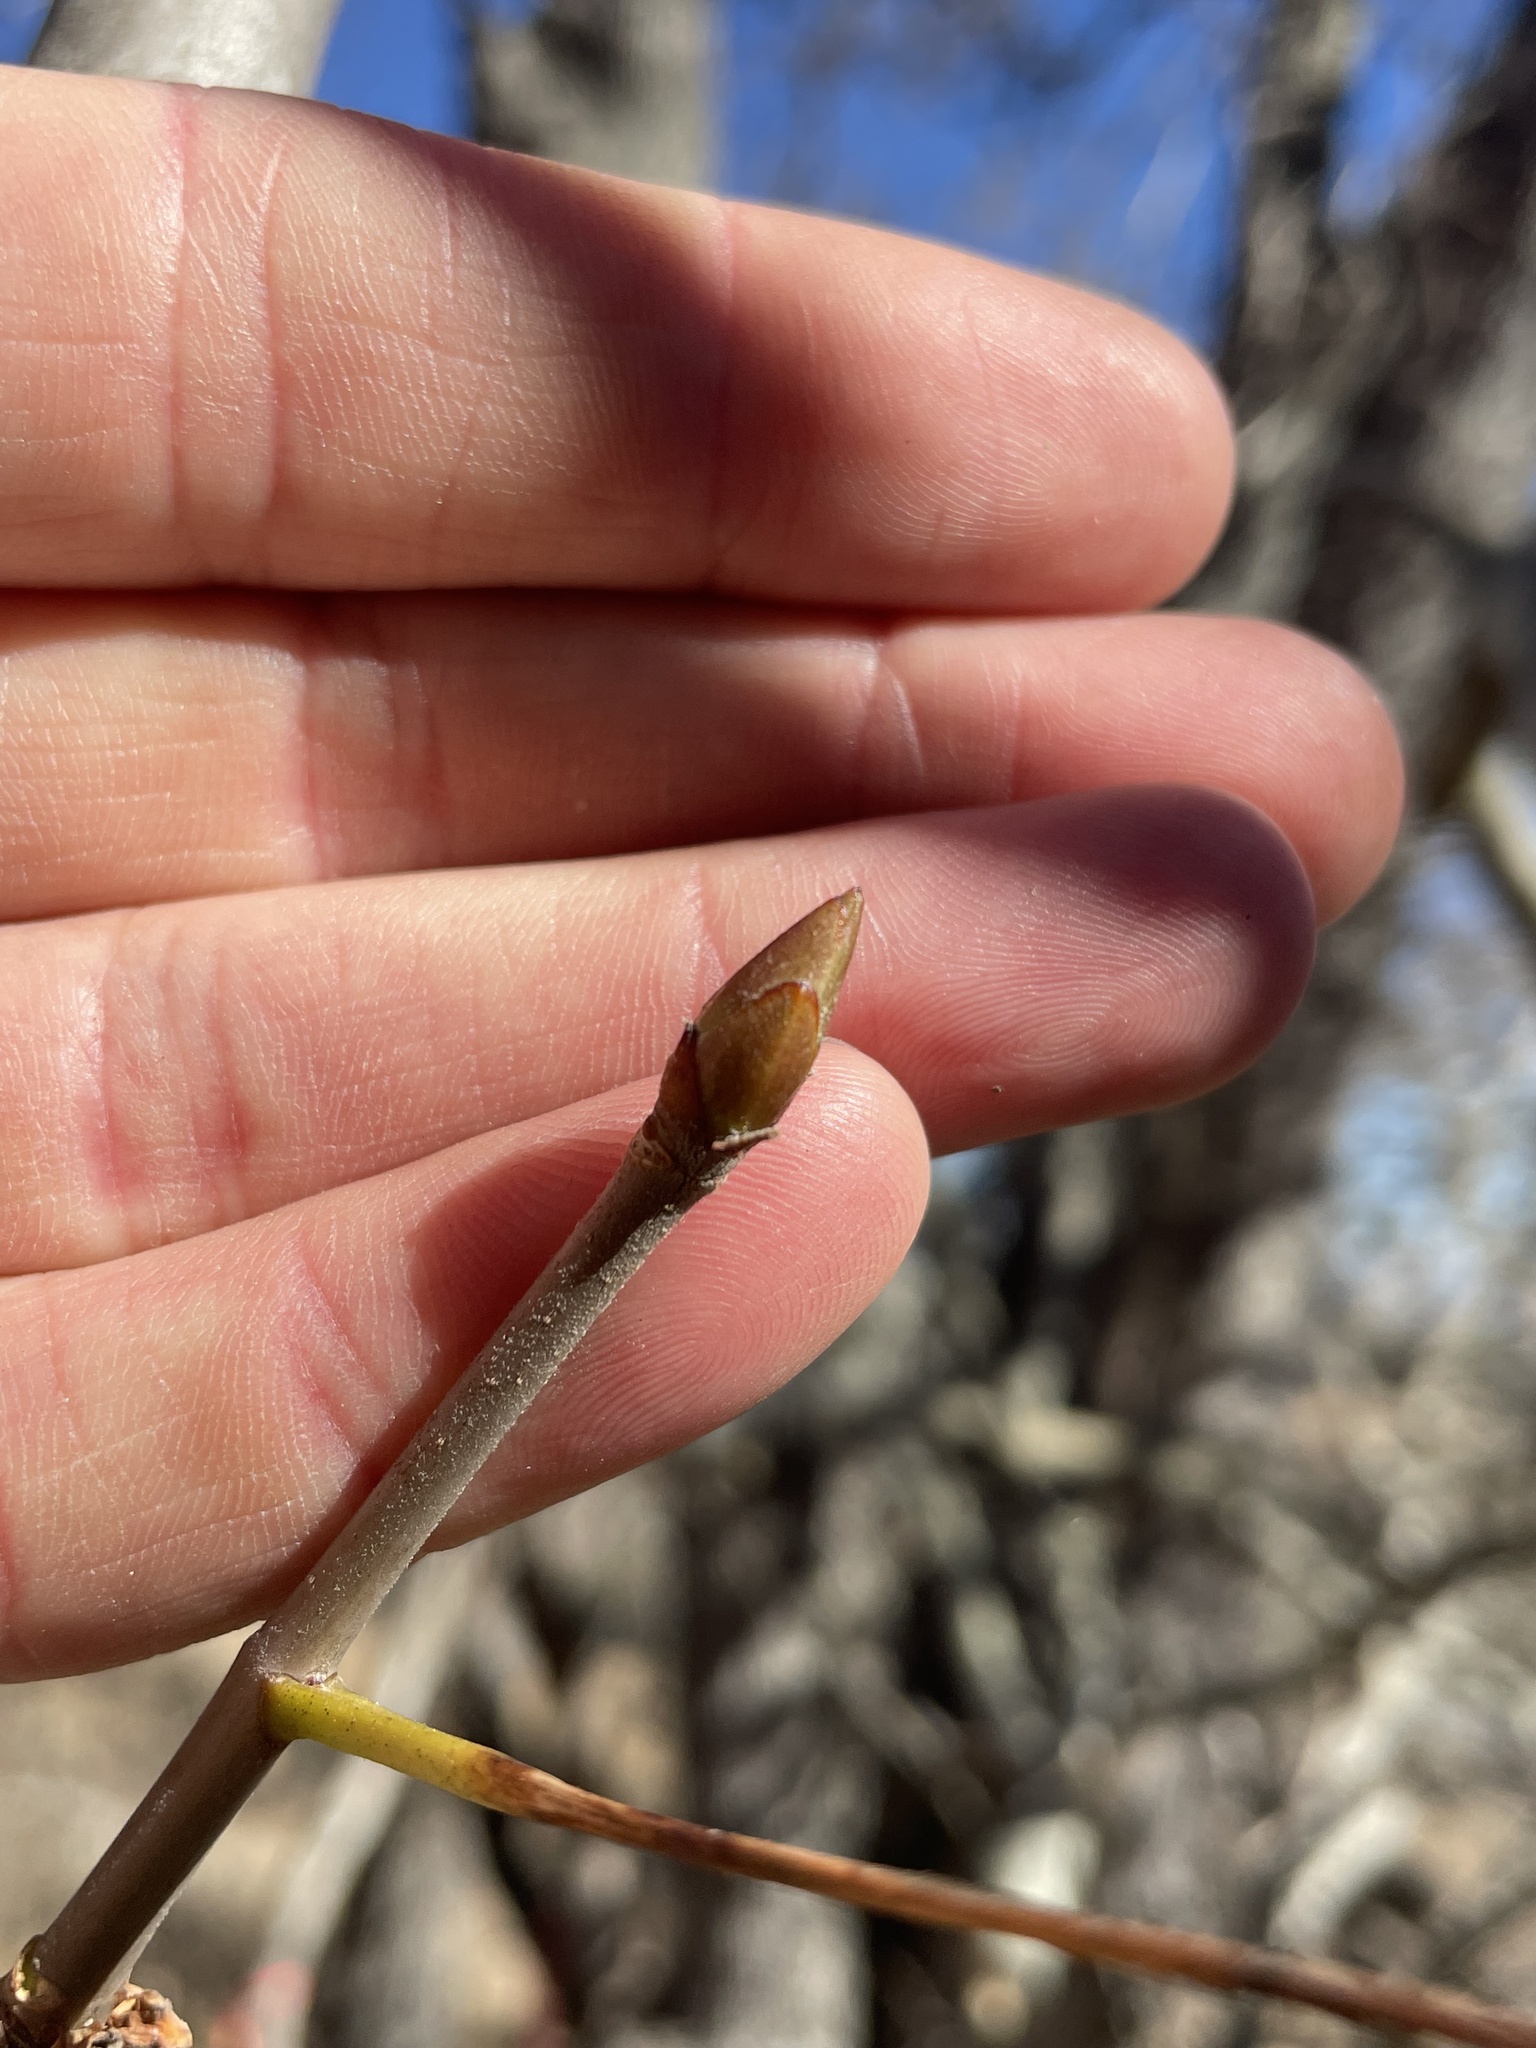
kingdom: Plantae
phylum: Tracheophyta
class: Magnoliopsida
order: Sapindales
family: Sapindaceae
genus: Aesculus
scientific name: Aesculus californica
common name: California buckeye
